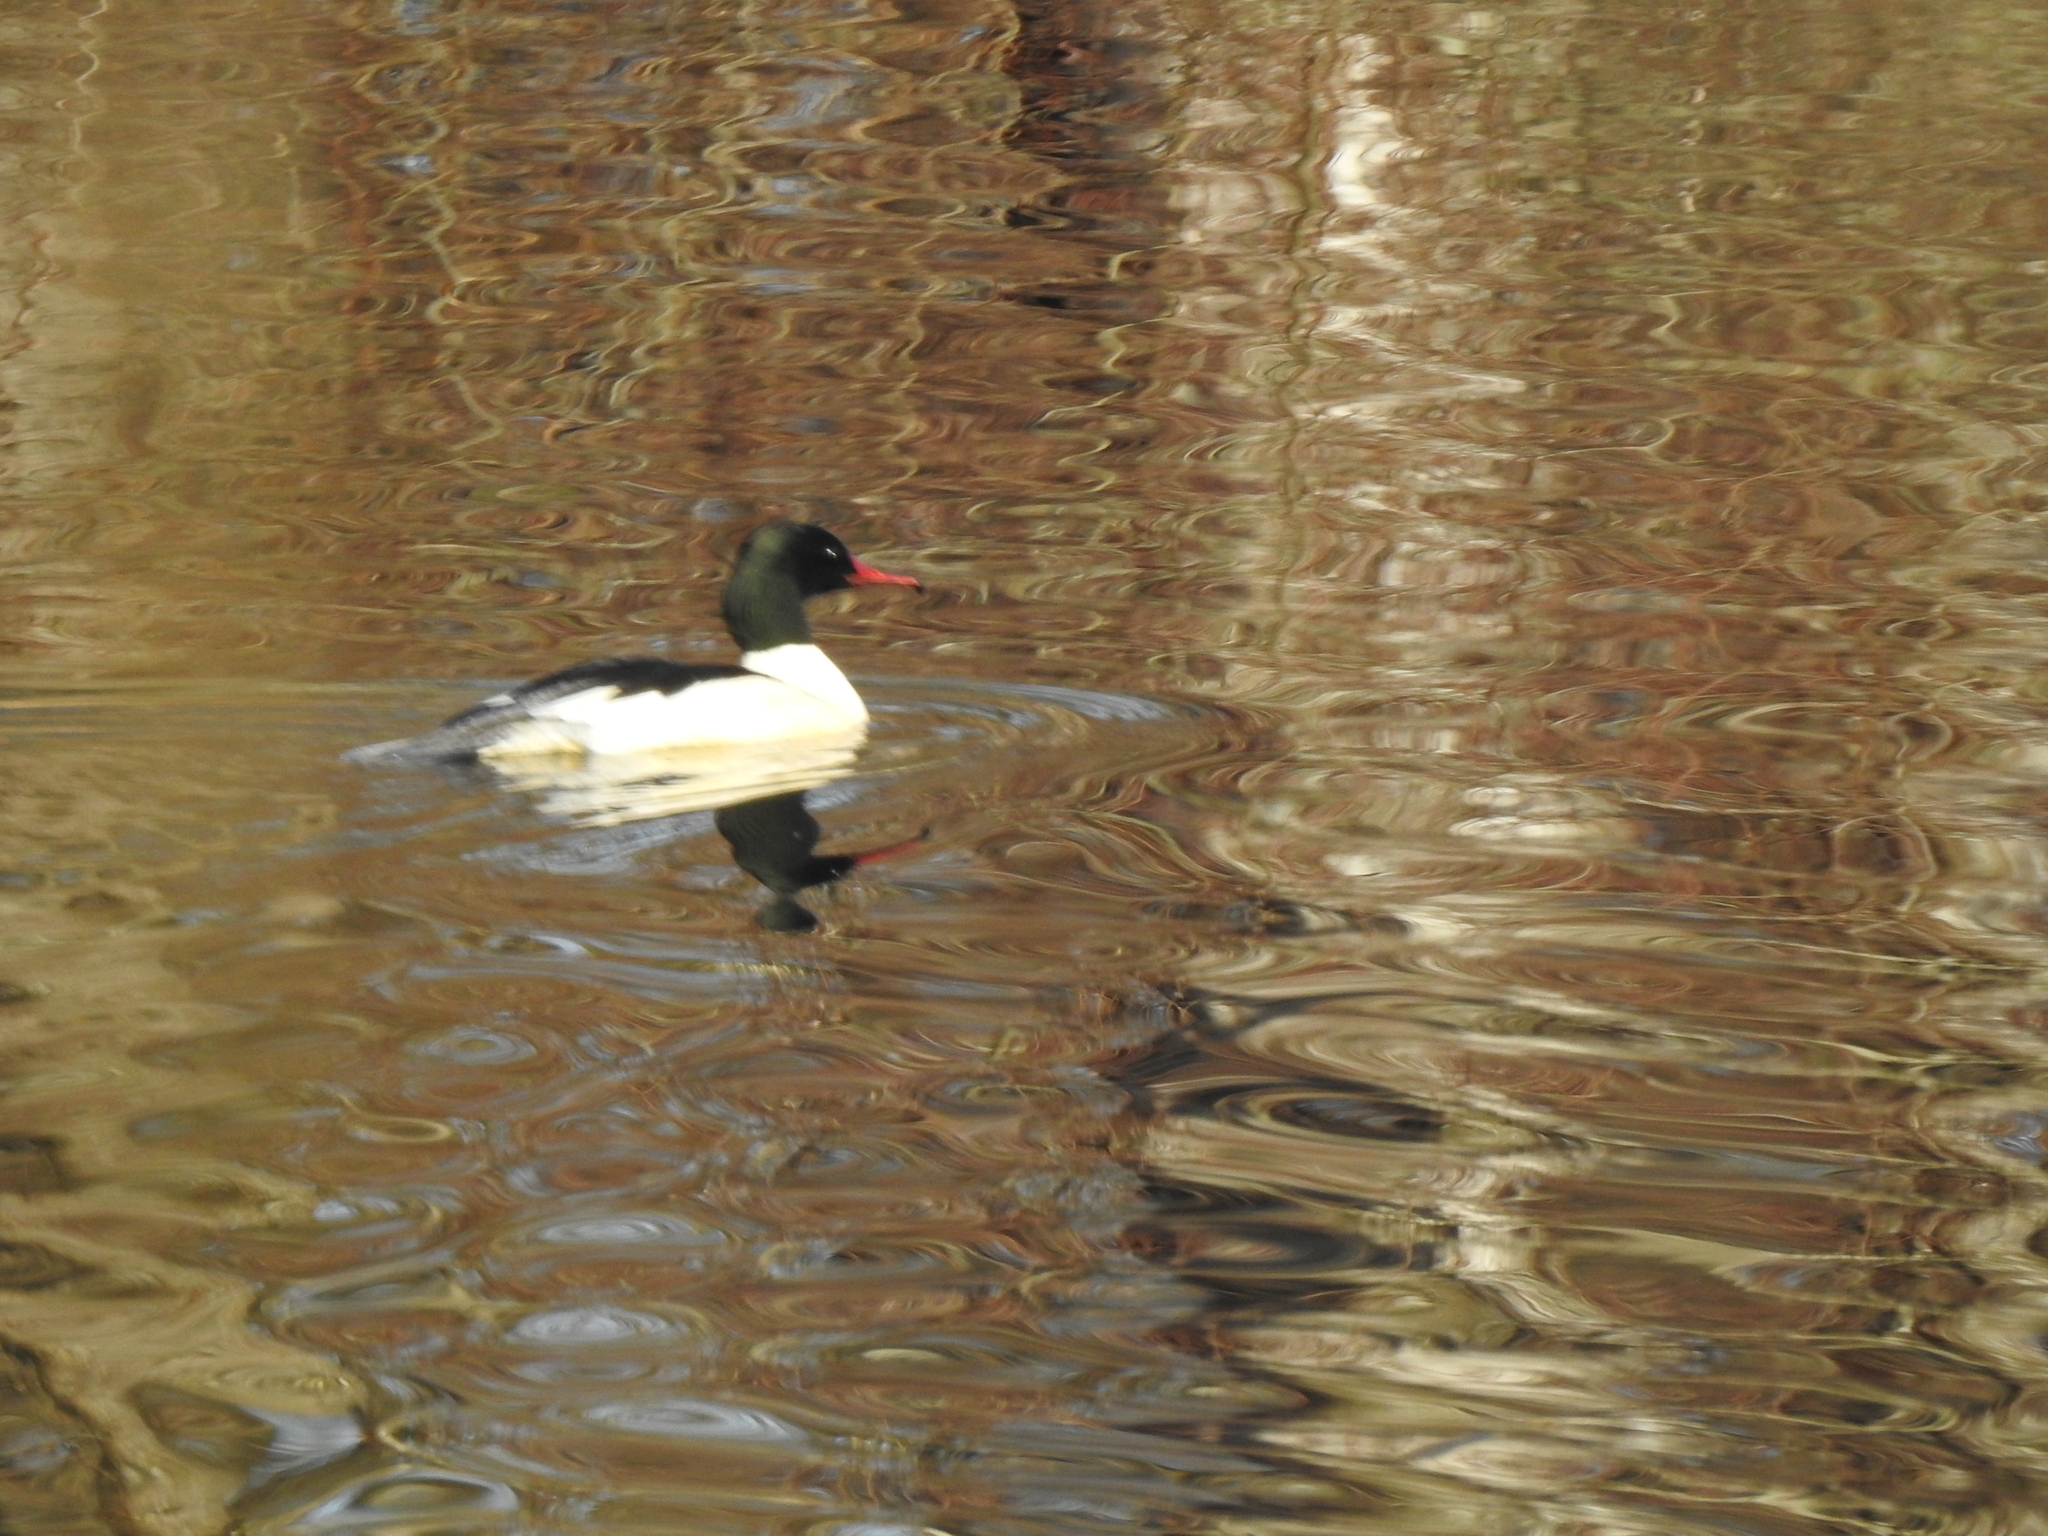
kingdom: Animalia
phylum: Chordata
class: Aves
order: Anseriformes
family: Anatidae
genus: Mergus
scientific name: Mergus merganser
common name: Common merganser
